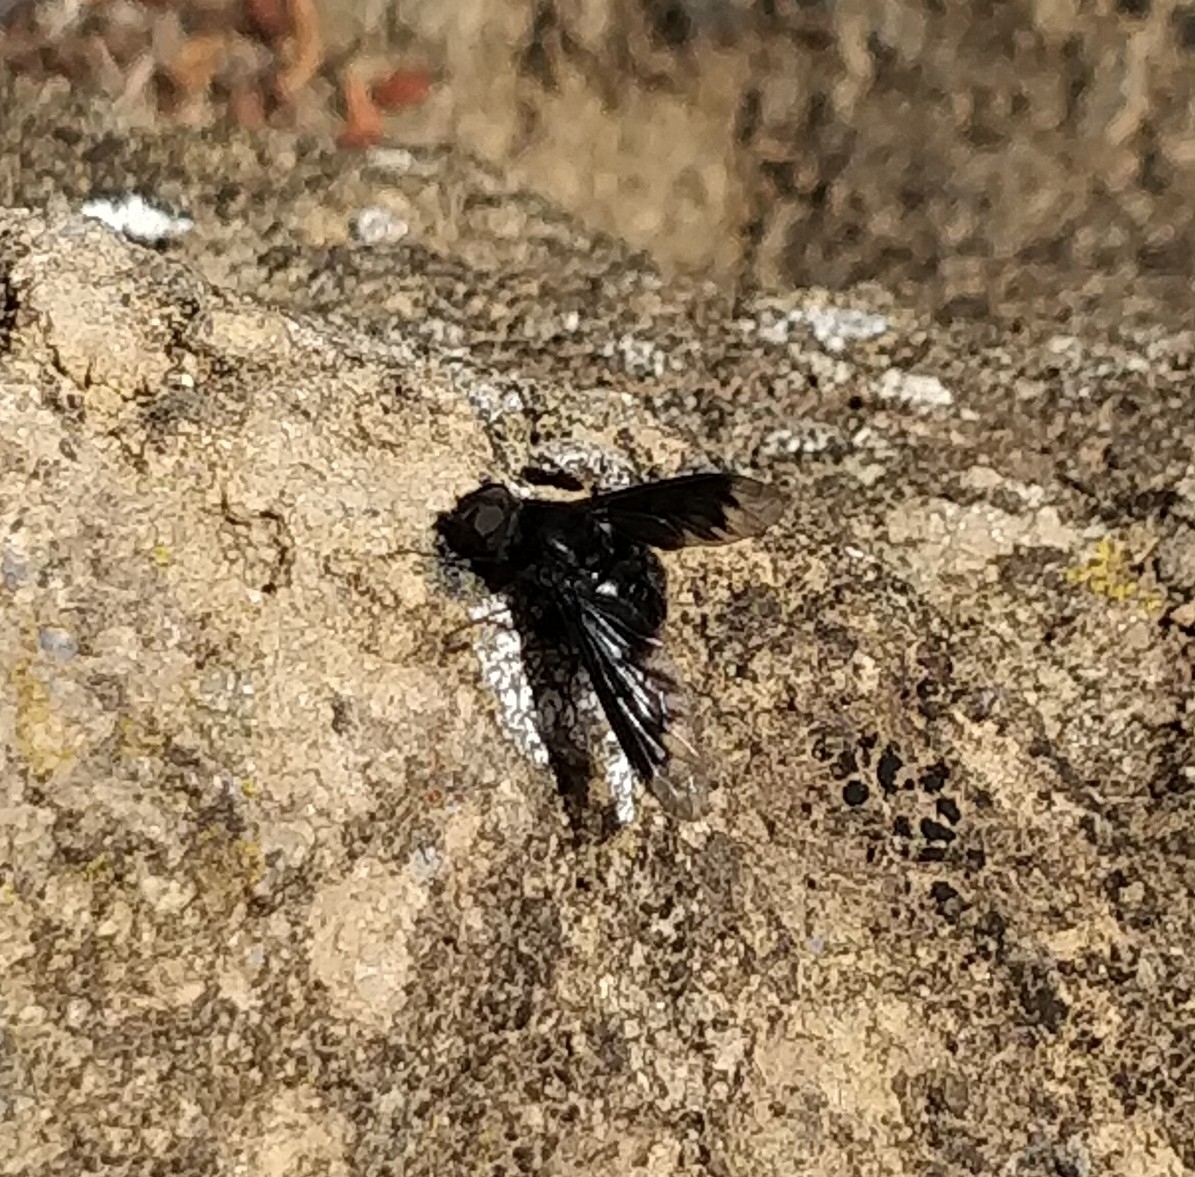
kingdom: Animalia
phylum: Arthropoda
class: Insecta
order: Diptera
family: Bombyliidae
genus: Anthrax
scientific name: Anthrax anthrax
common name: Anthracite bee-fly
